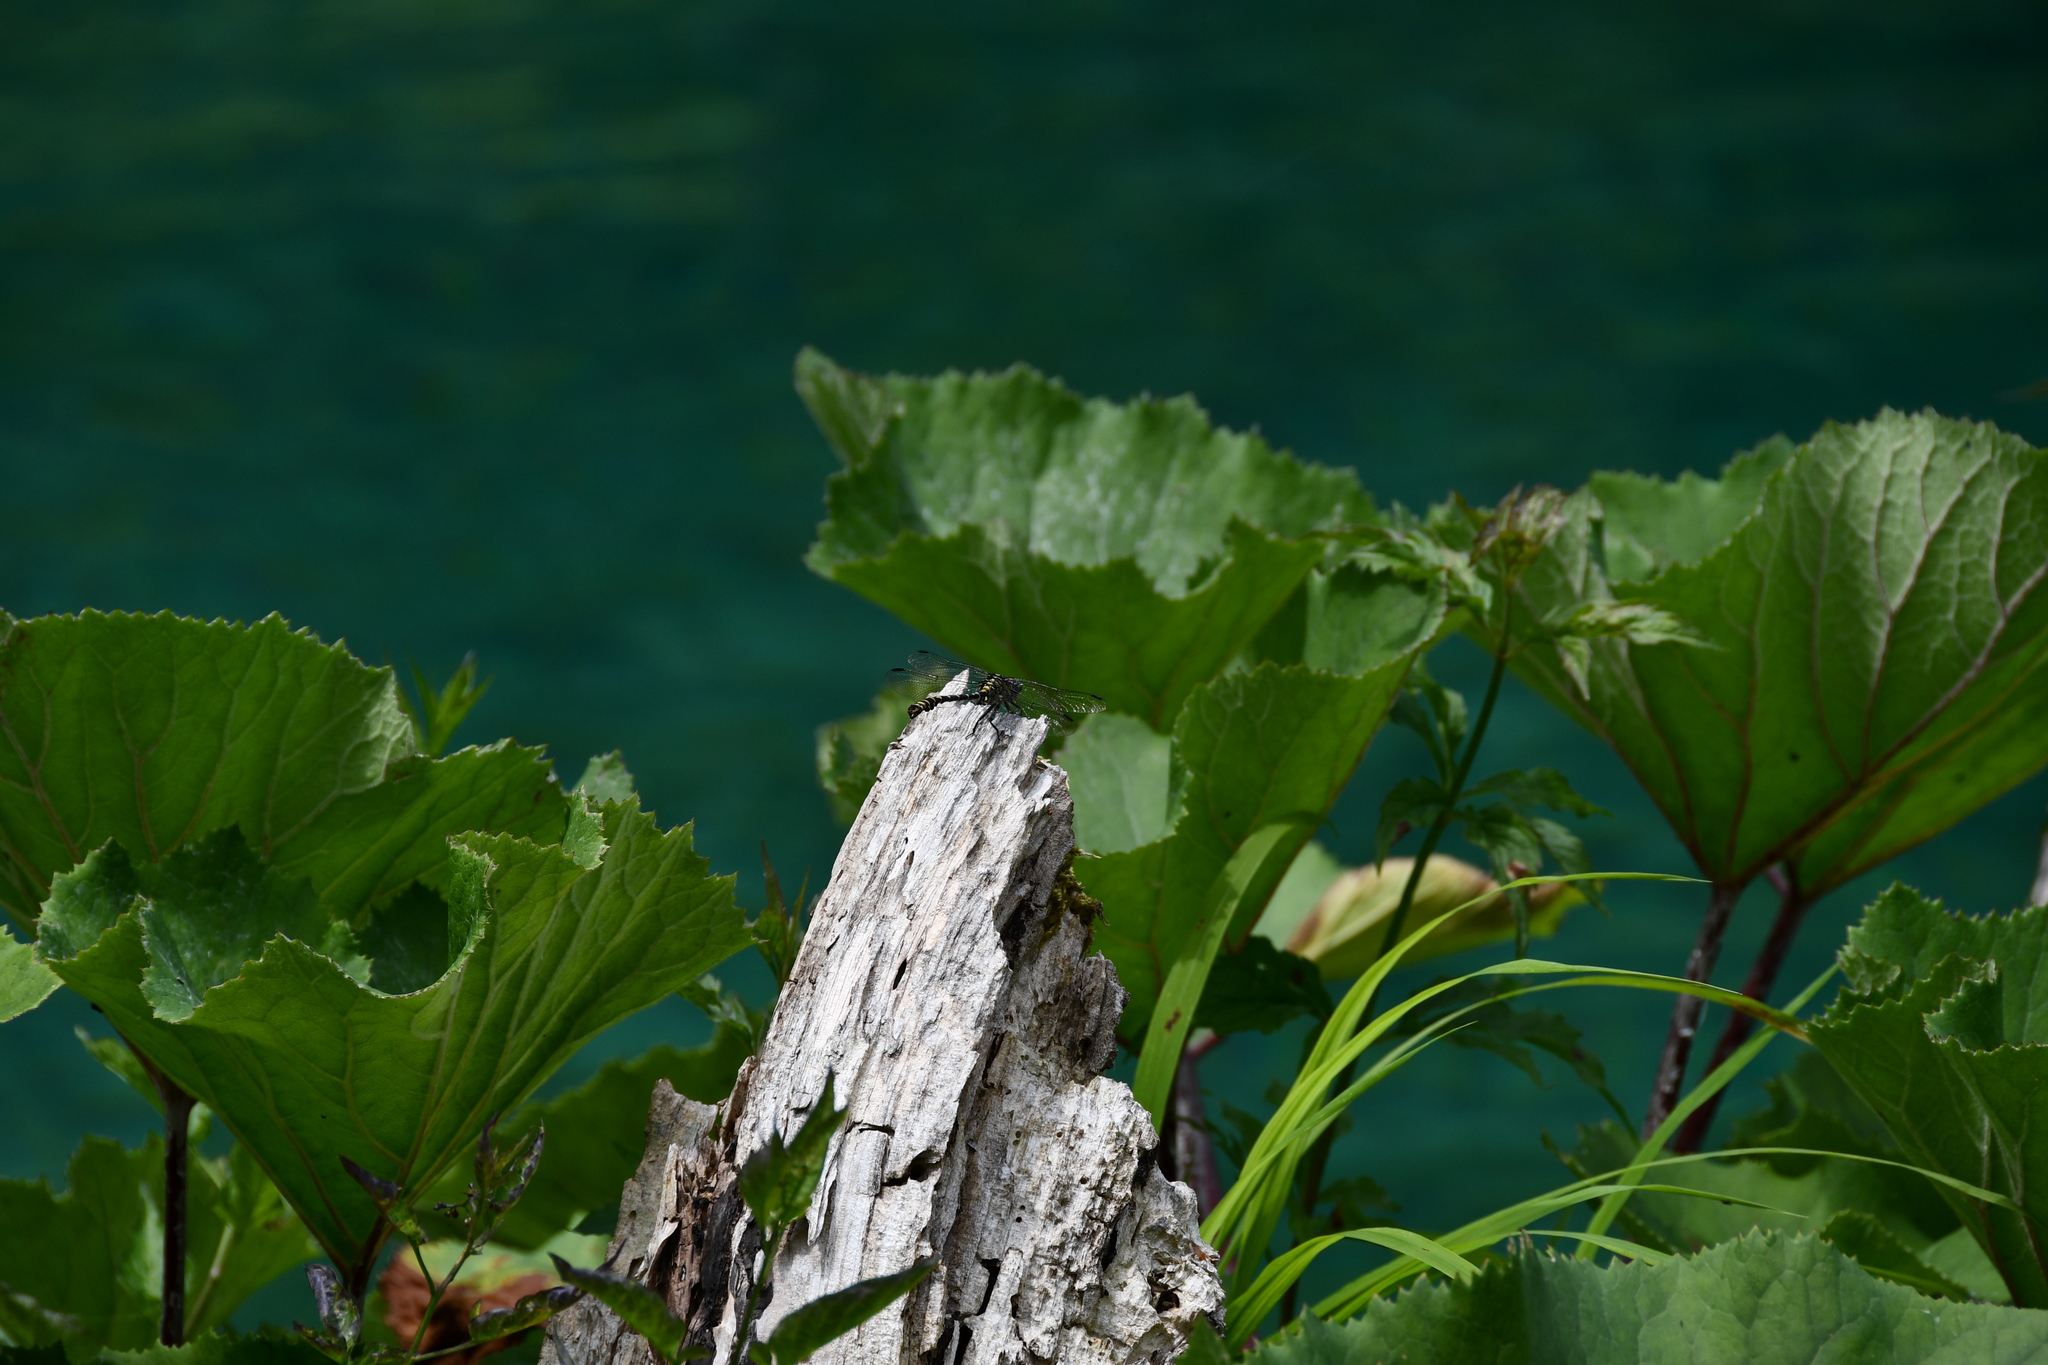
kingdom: Animalia
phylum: Arthropoda
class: Insecta
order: Odonata
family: Gomphidae
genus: Onychogomphus
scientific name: Onychogomphus forcipatus
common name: Small pincertail
